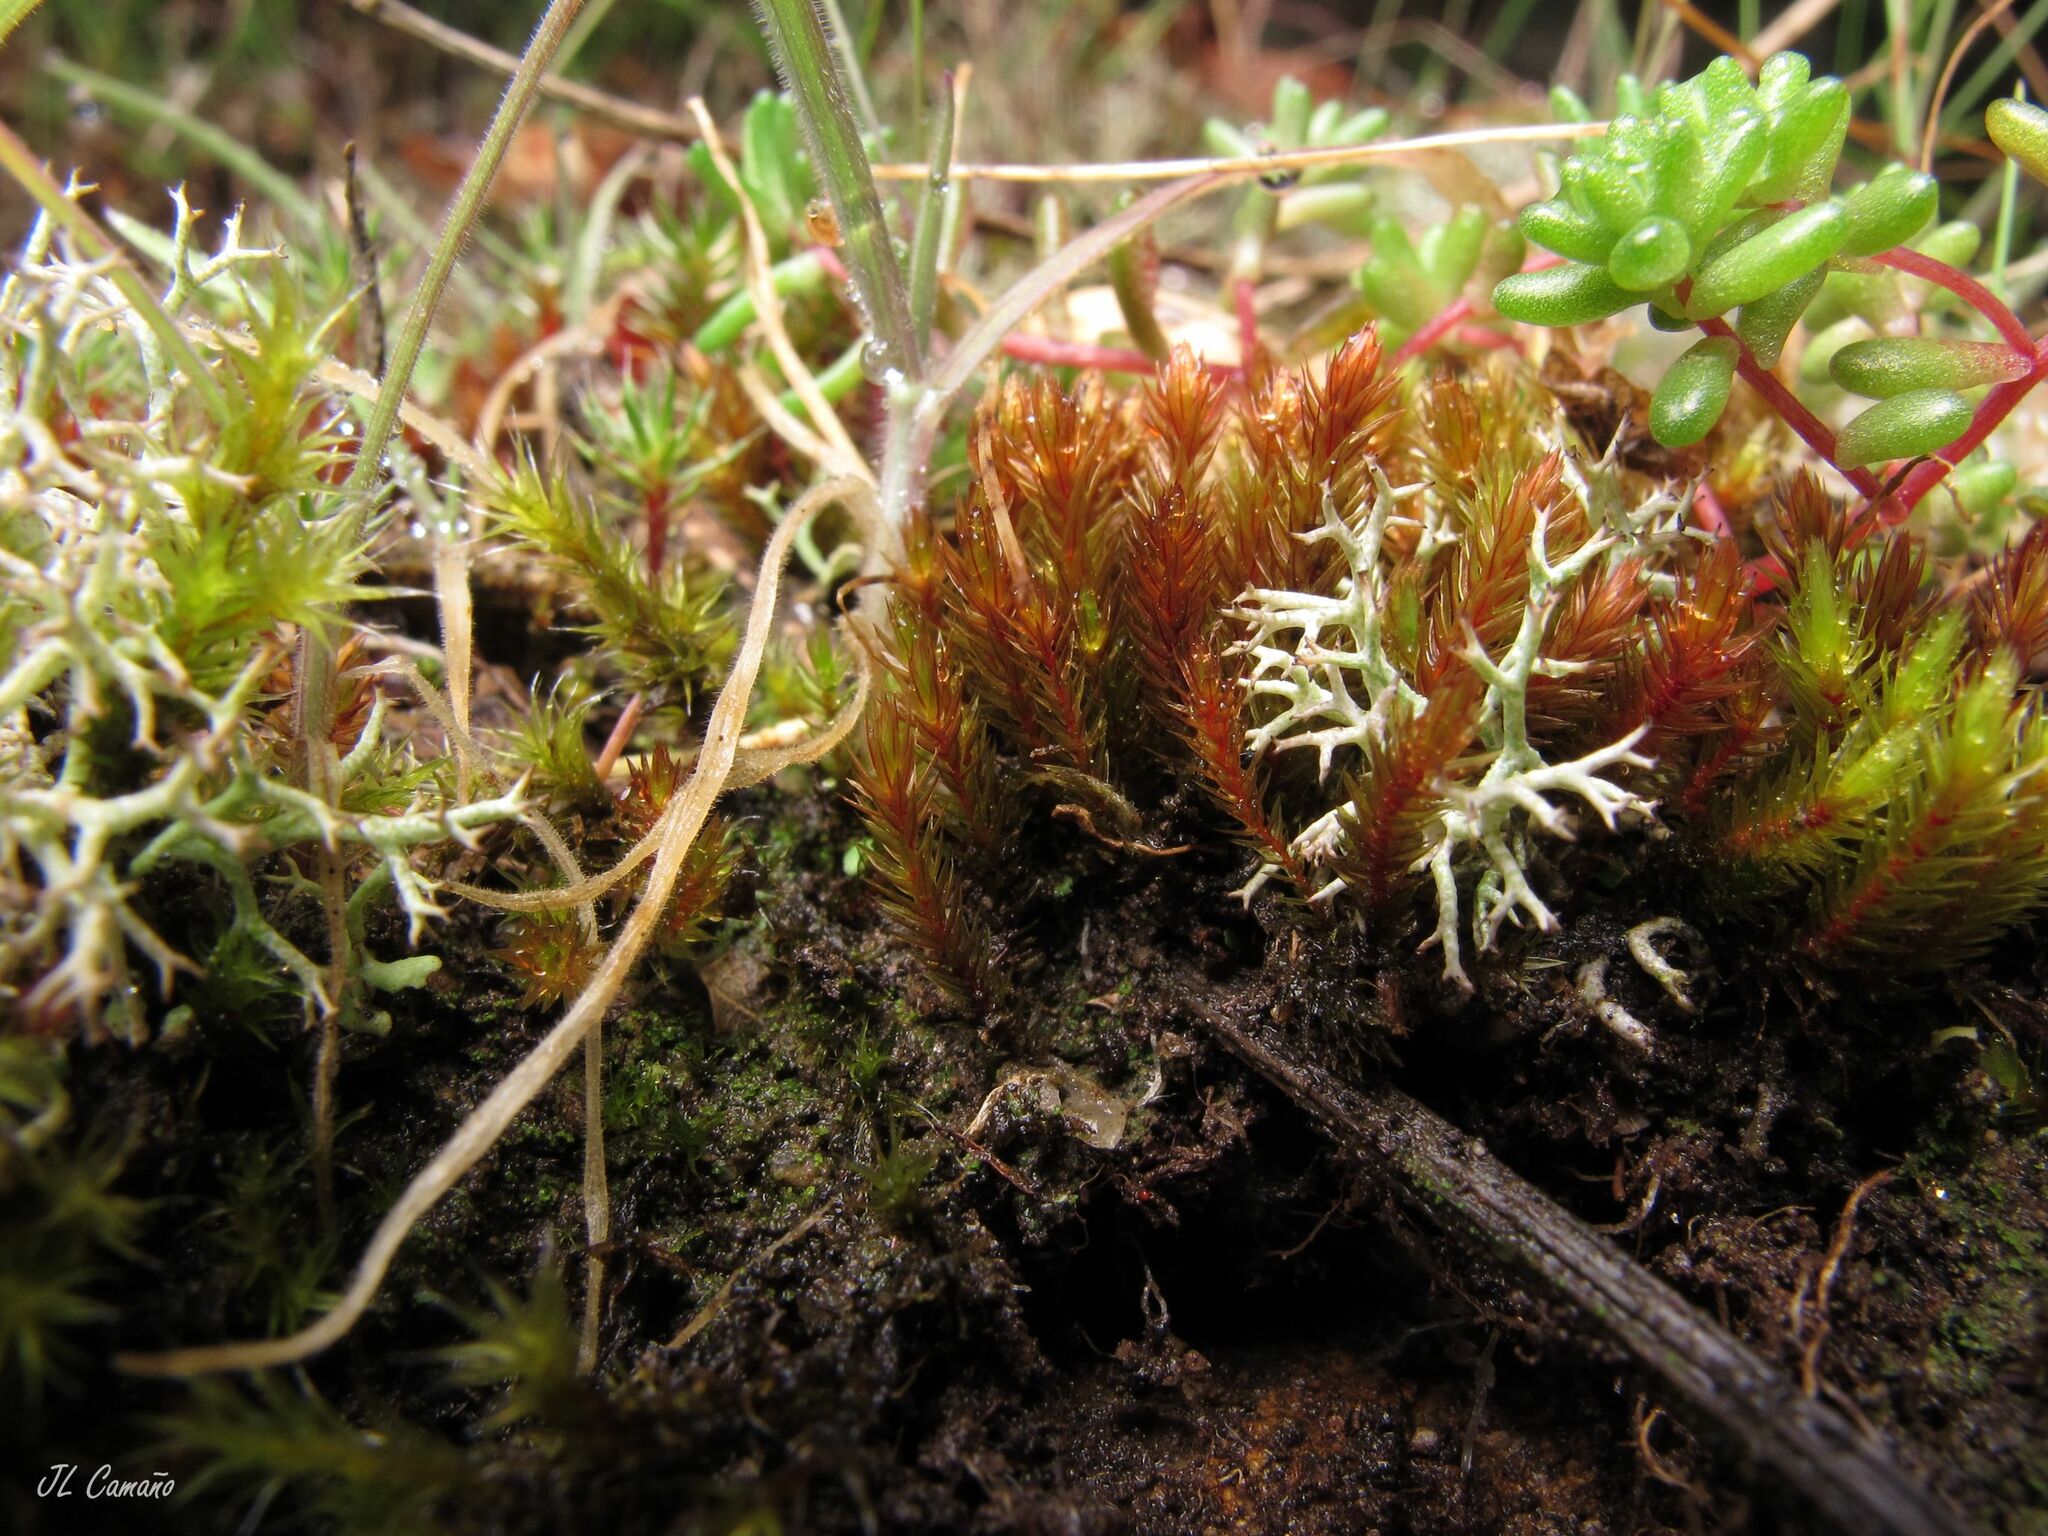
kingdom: Plantae
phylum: Bryophyta
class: Bryopsida
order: Bryales
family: Bryaceae
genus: Imbribryum
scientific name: Imbribryum alpinum
